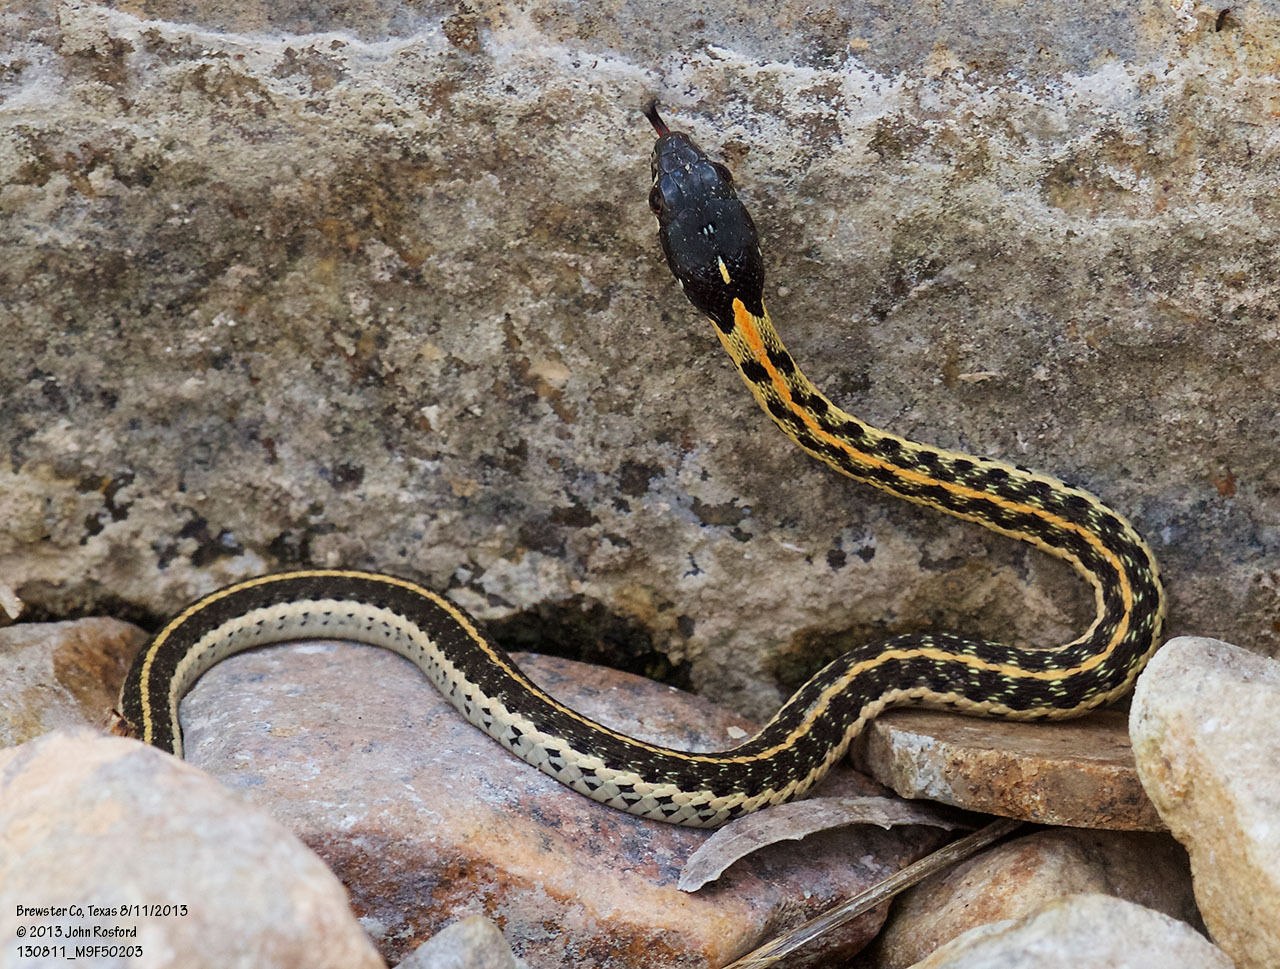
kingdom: Animalia
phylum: Chordata
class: Squamata
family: Colubridae
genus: Thamnophis
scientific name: Thamnophis cyrtopsis
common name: Black-necked gartersnake
